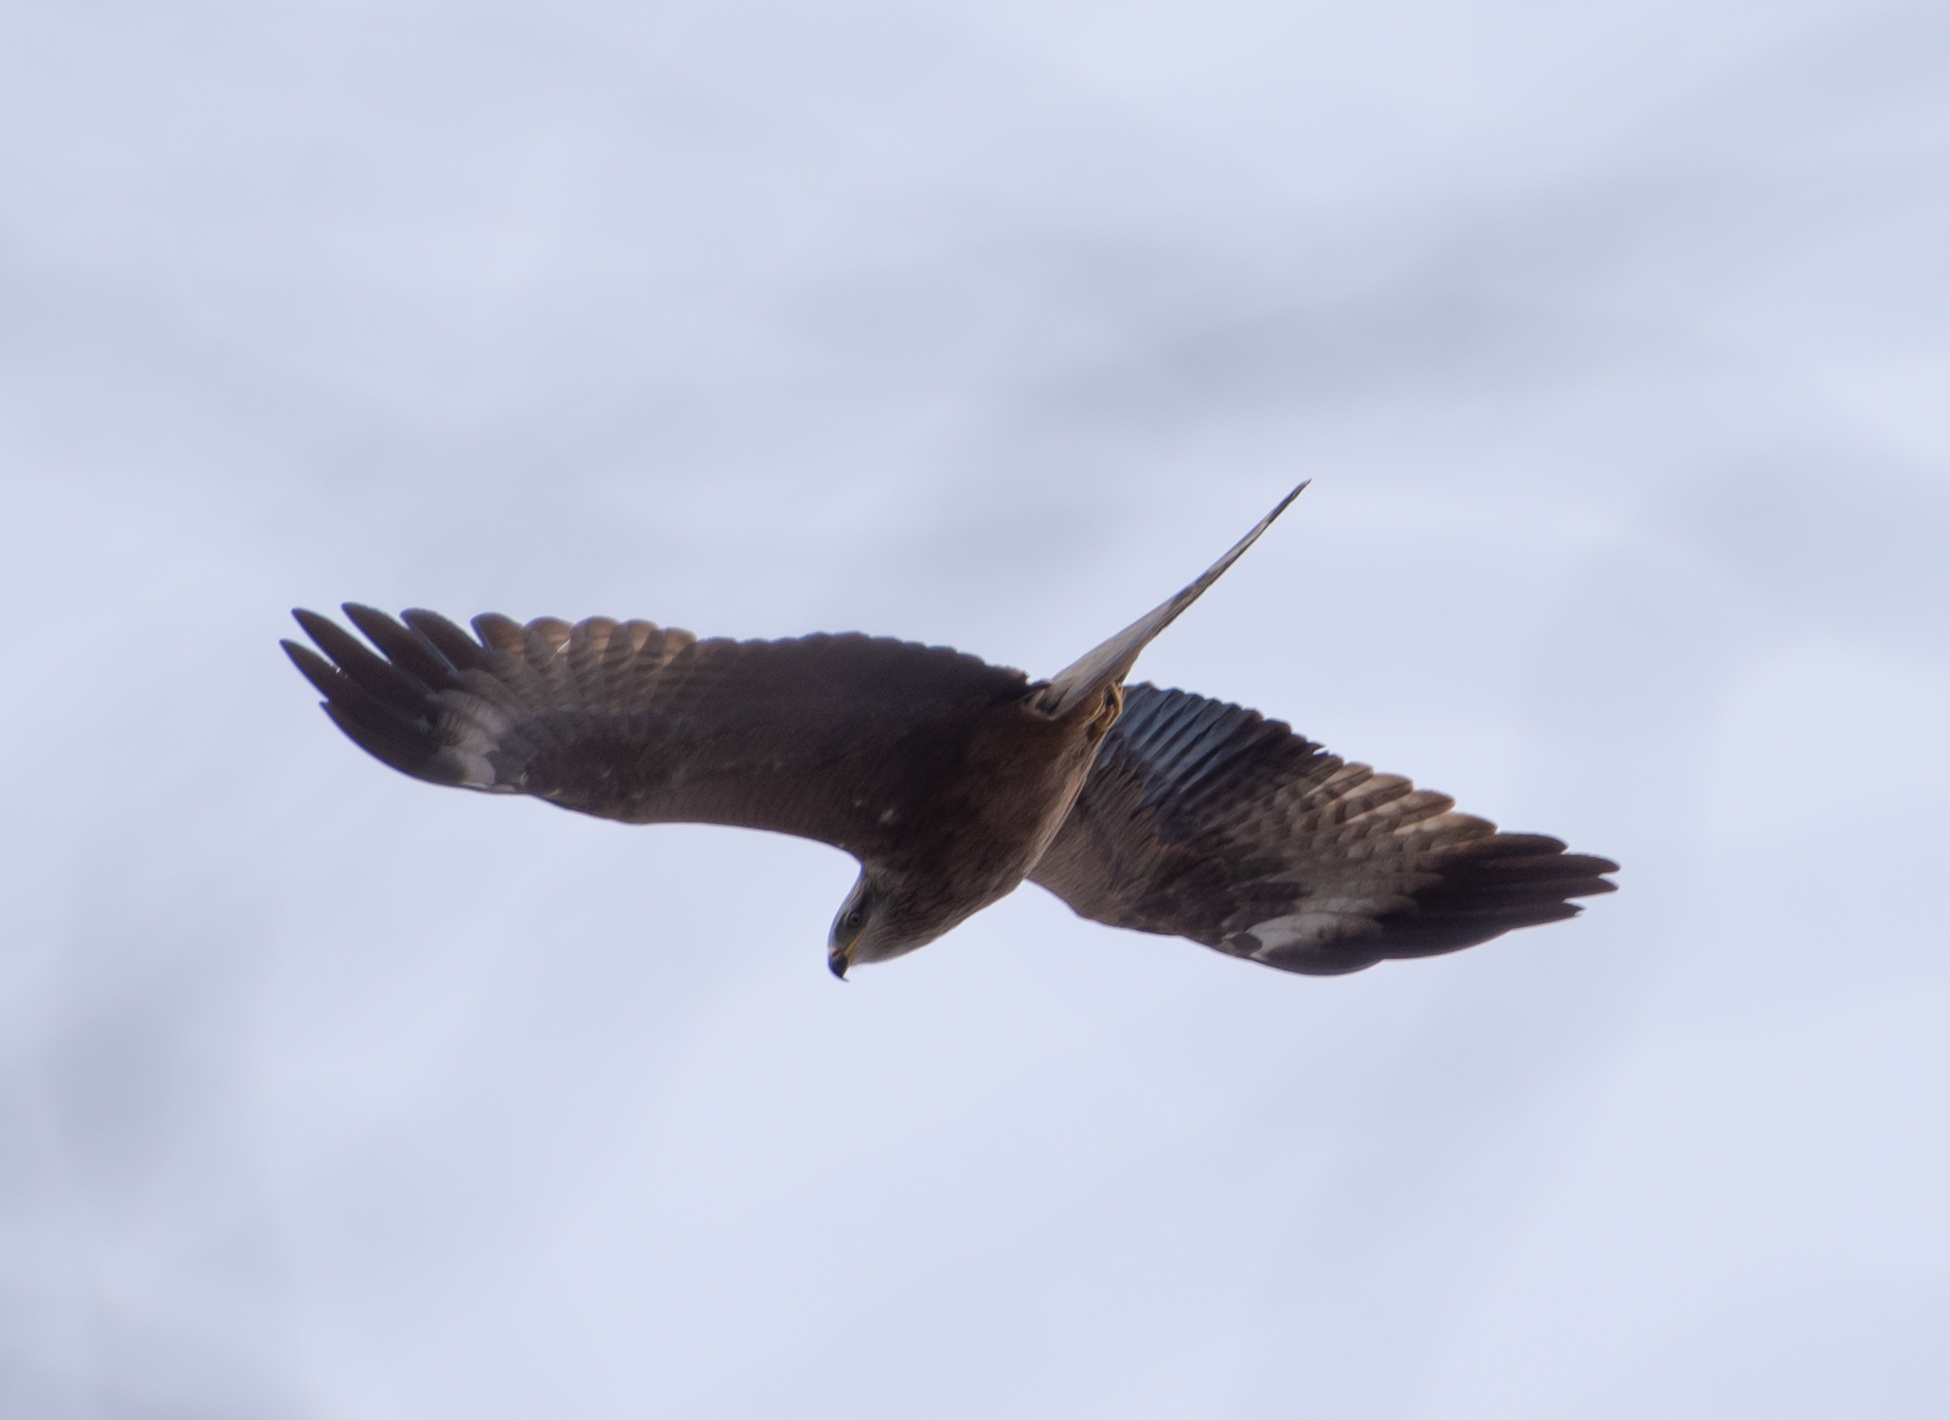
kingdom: Animalia
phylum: Chordata
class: Aves
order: Accipitriformes
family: Accipitridae
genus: Milvus
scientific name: Milvus migrans
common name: Black kite
